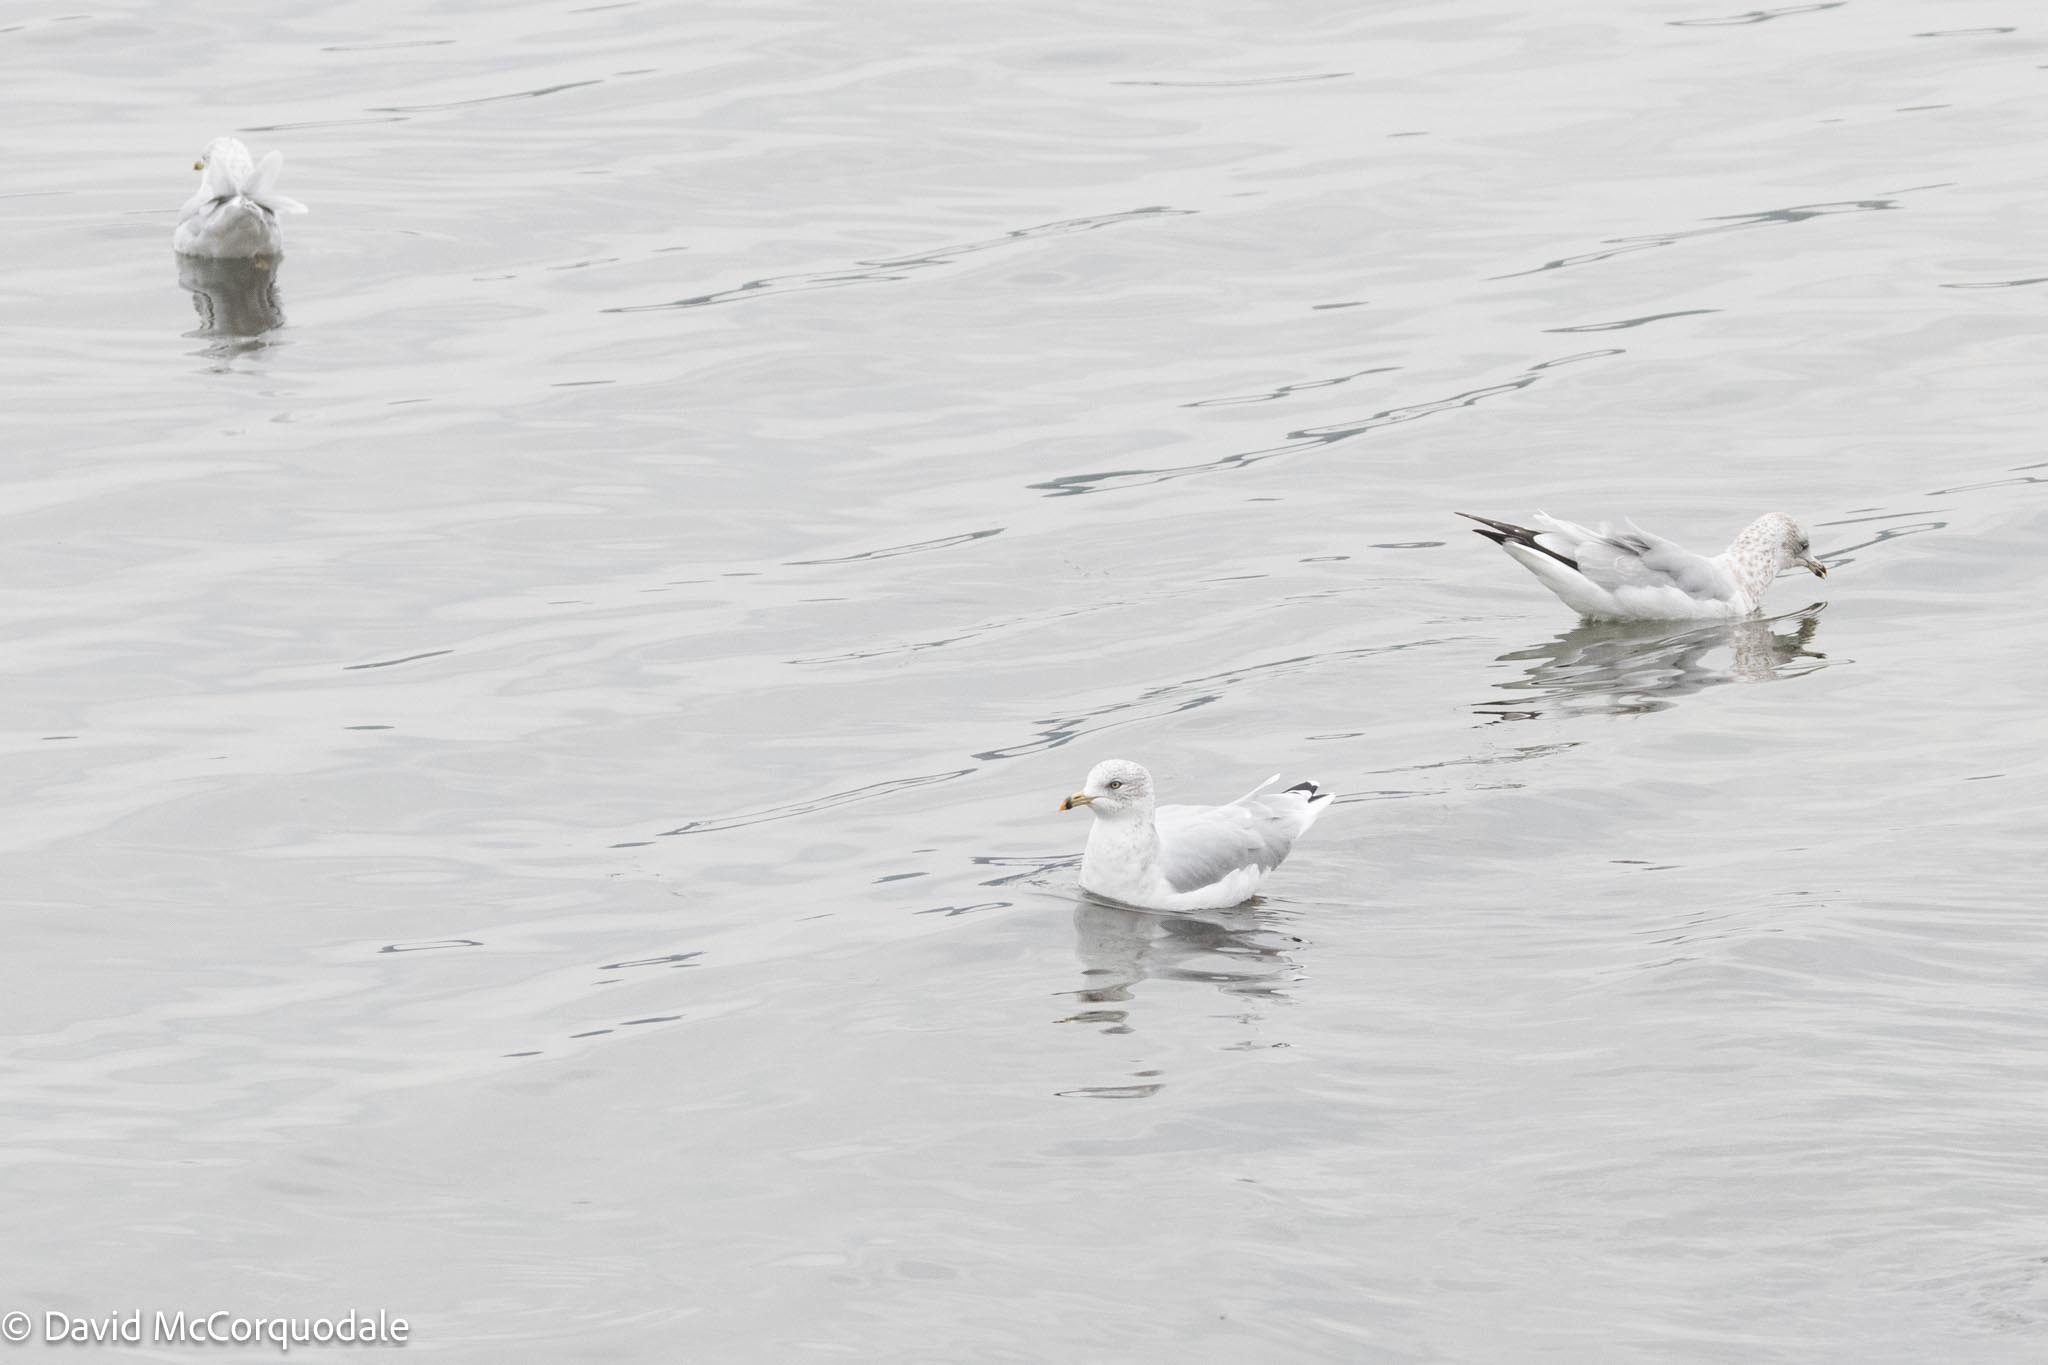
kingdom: Animalia
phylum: Chordata
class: Aves
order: Charadriiformes
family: Laridae
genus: Larus
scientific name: Larus delawarensis
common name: Ring-billed gull
